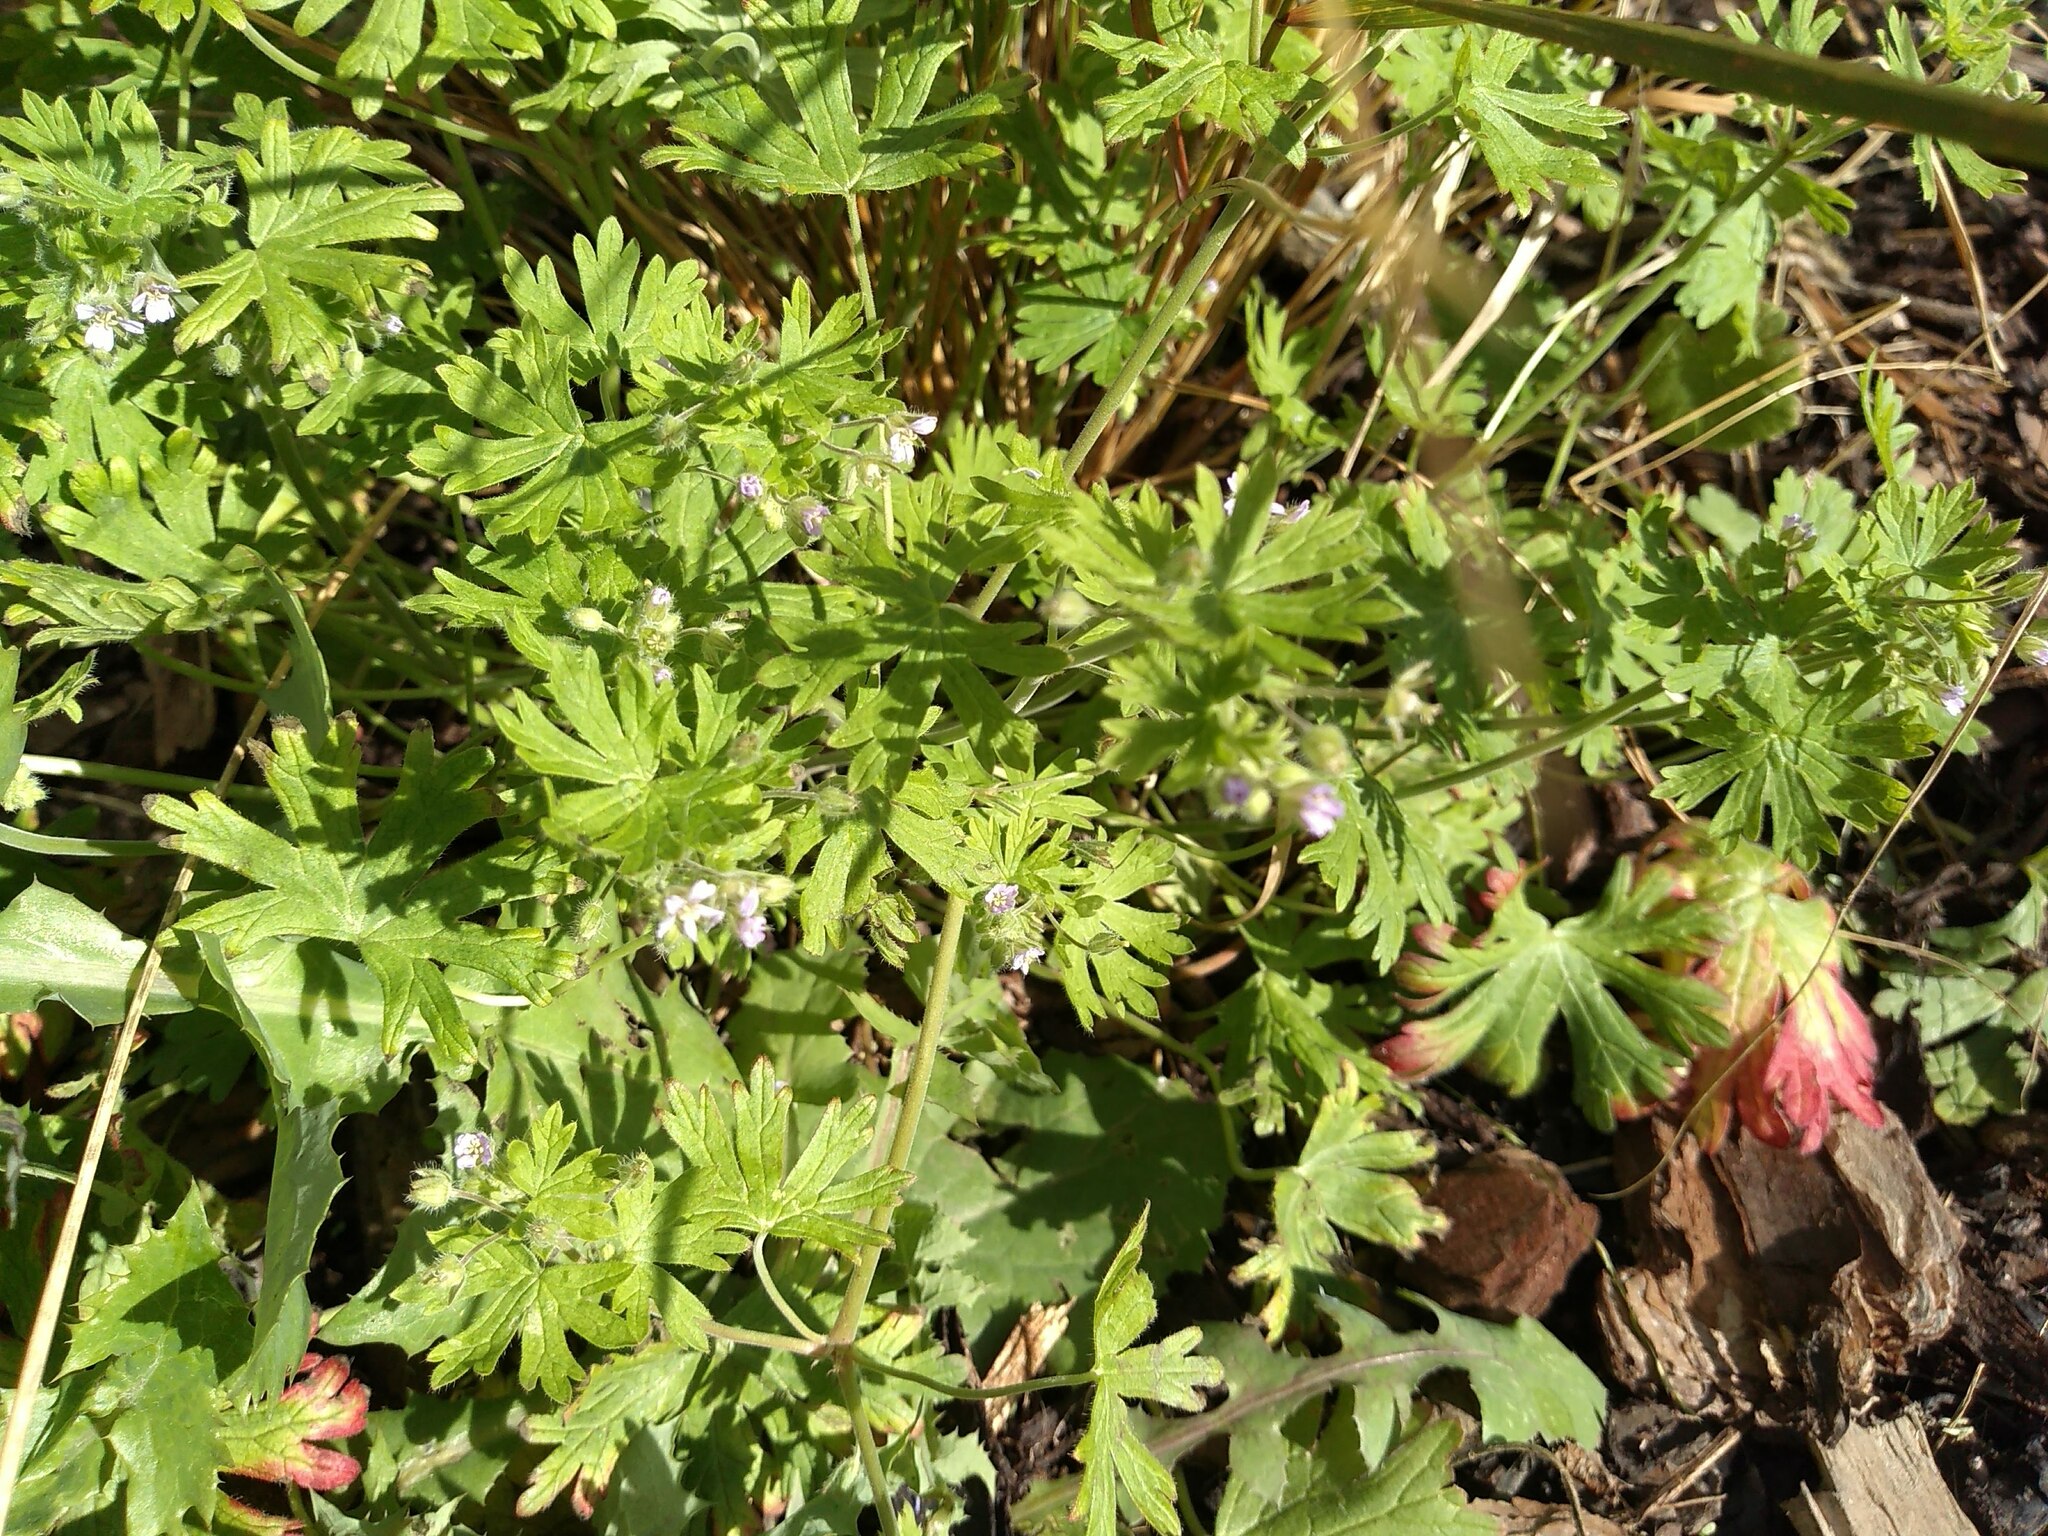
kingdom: Plantae
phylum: Tracheophyta
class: Magnoliopsida
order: Geraniales
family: Geraniaceae
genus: Geranium
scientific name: Geranium pusillum
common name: Small geranium
